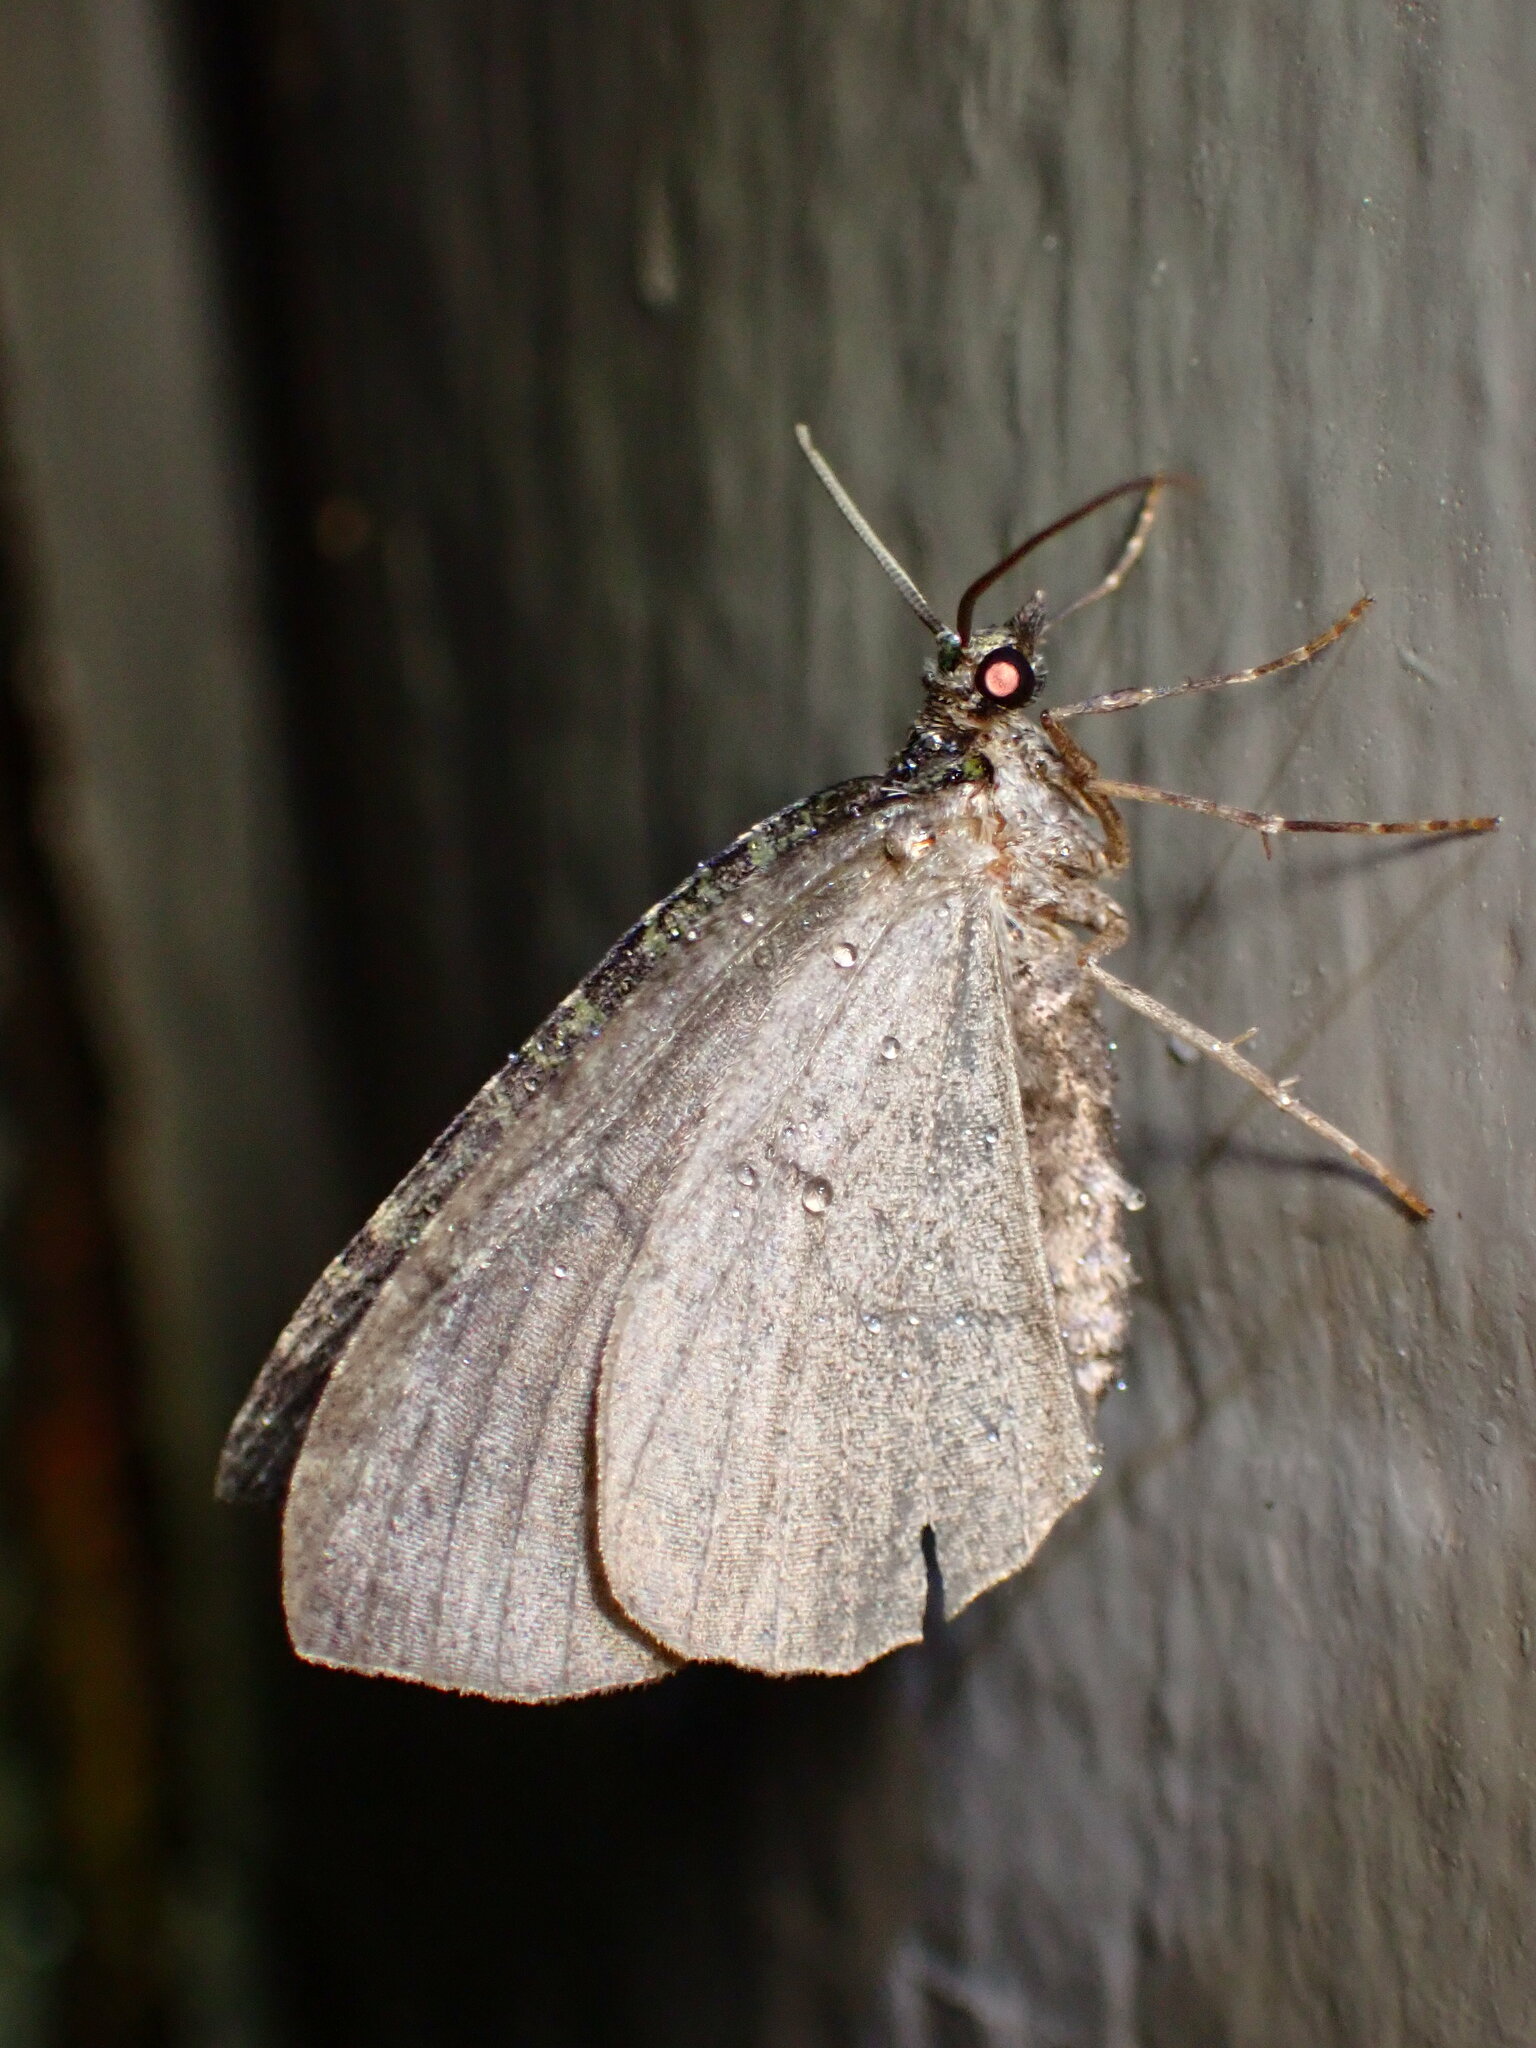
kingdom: Animalia
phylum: Arthropoda
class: Insecta
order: Lepidoptera
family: Geometridae
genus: Hydriomena
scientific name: Hydriomena nubilofasciata
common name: Oak winter highflier moth
